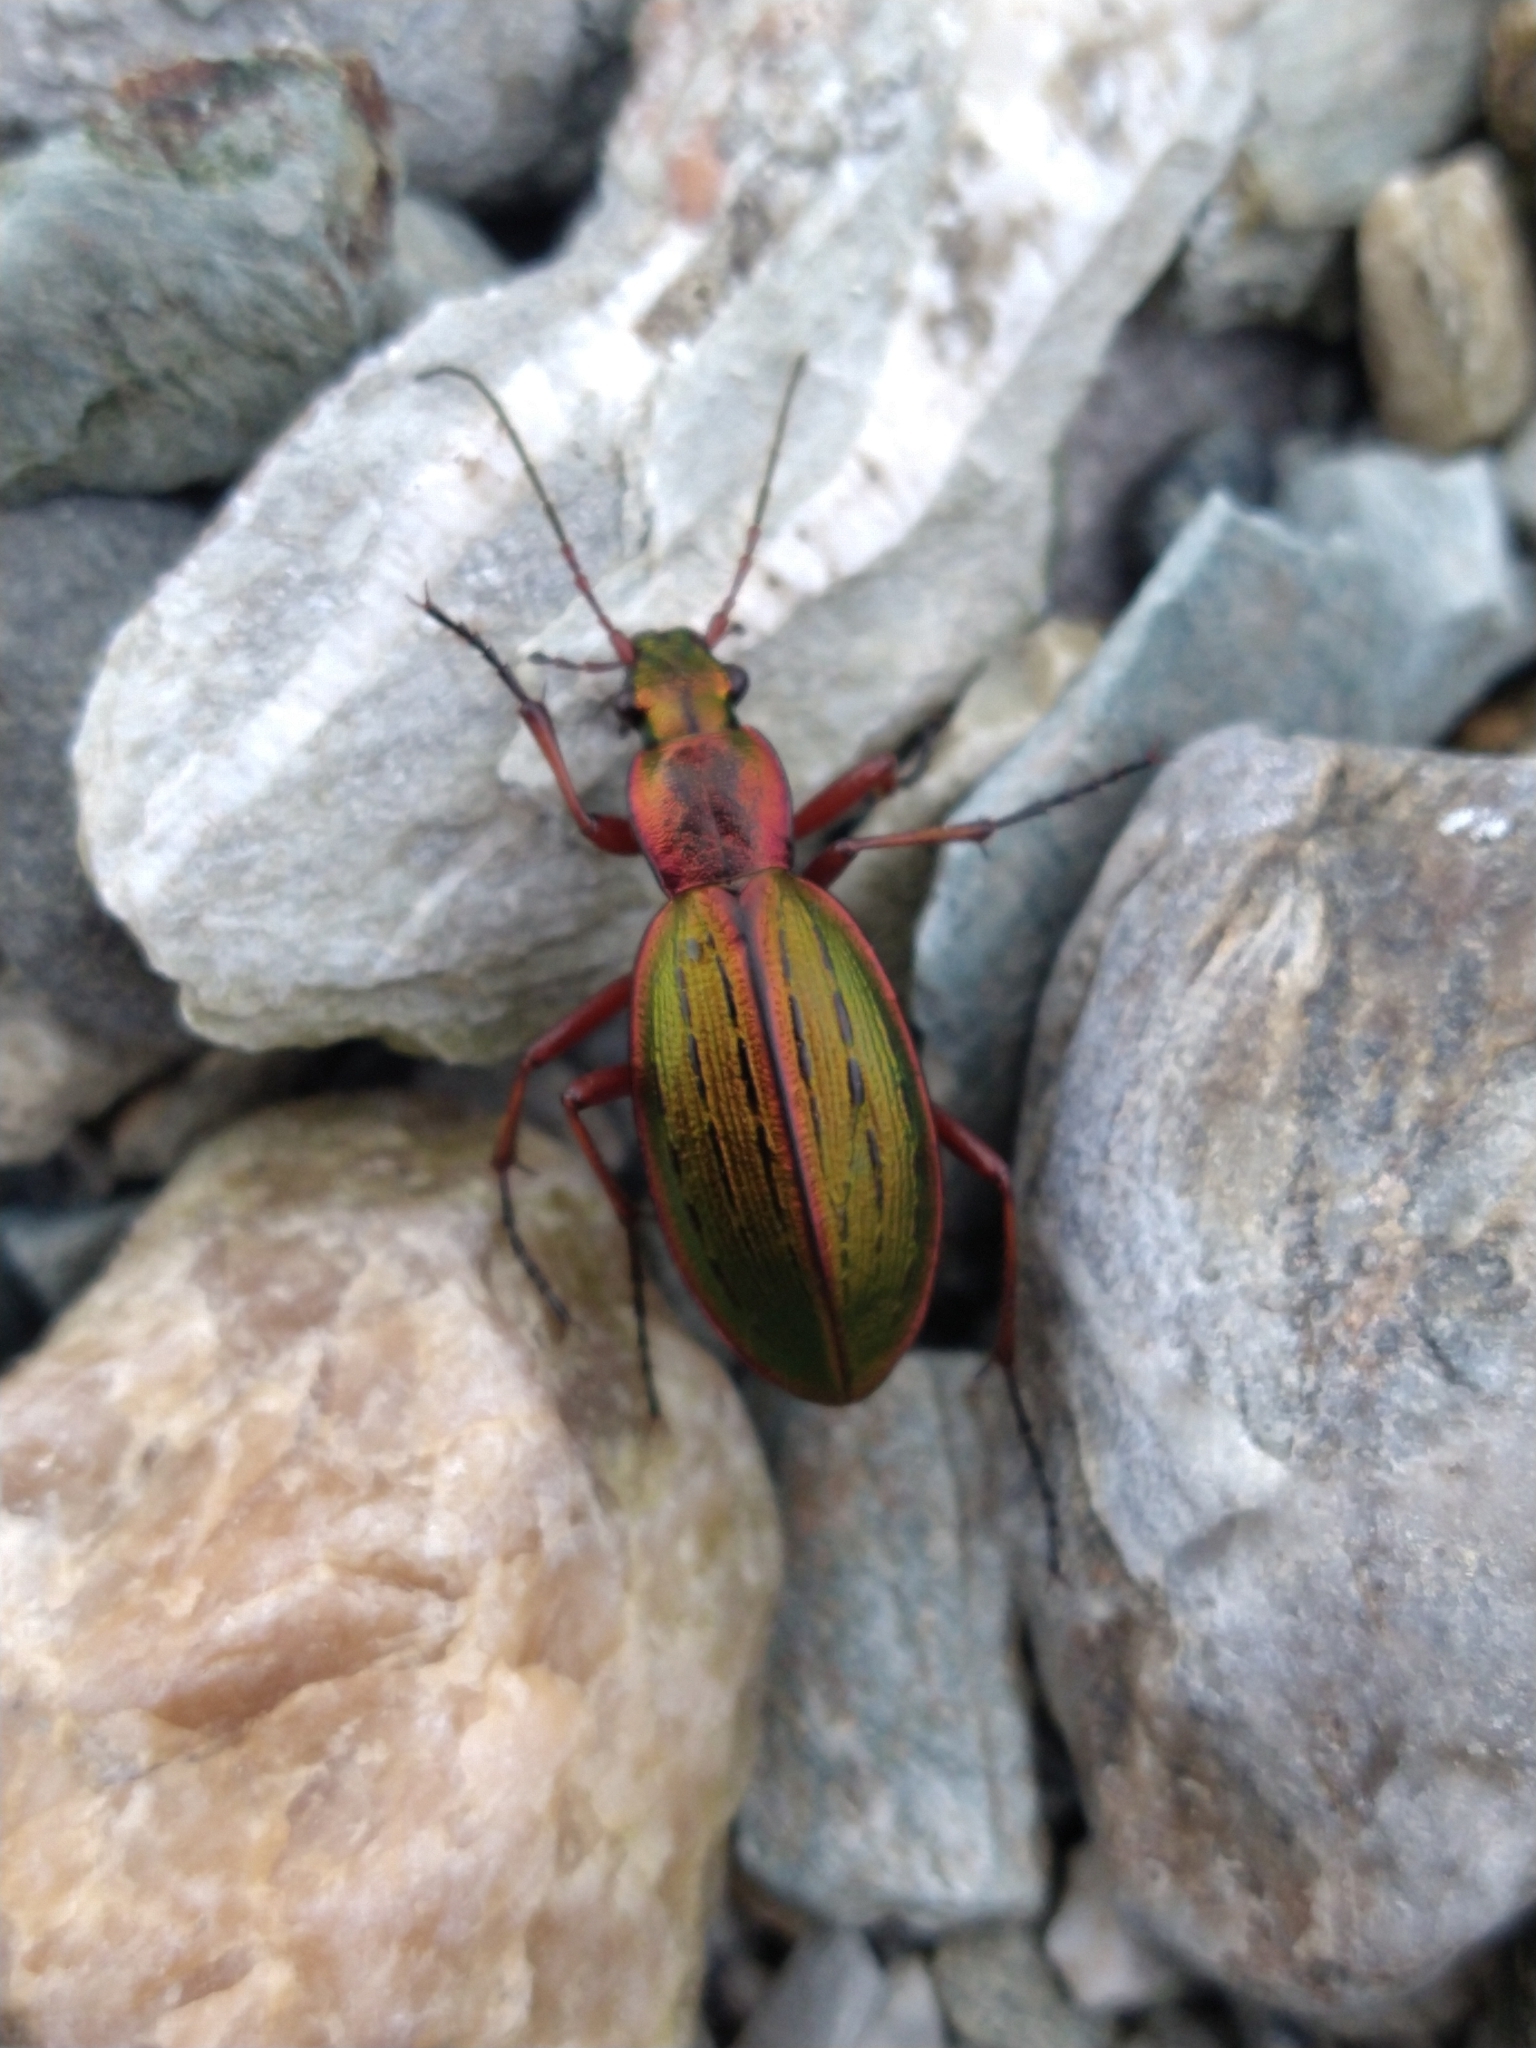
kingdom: Animalia
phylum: Arthropoda
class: Insecta
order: Coleoptera
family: Carabidae
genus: Ceroglossus
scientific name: Ceroglossus suturalis
